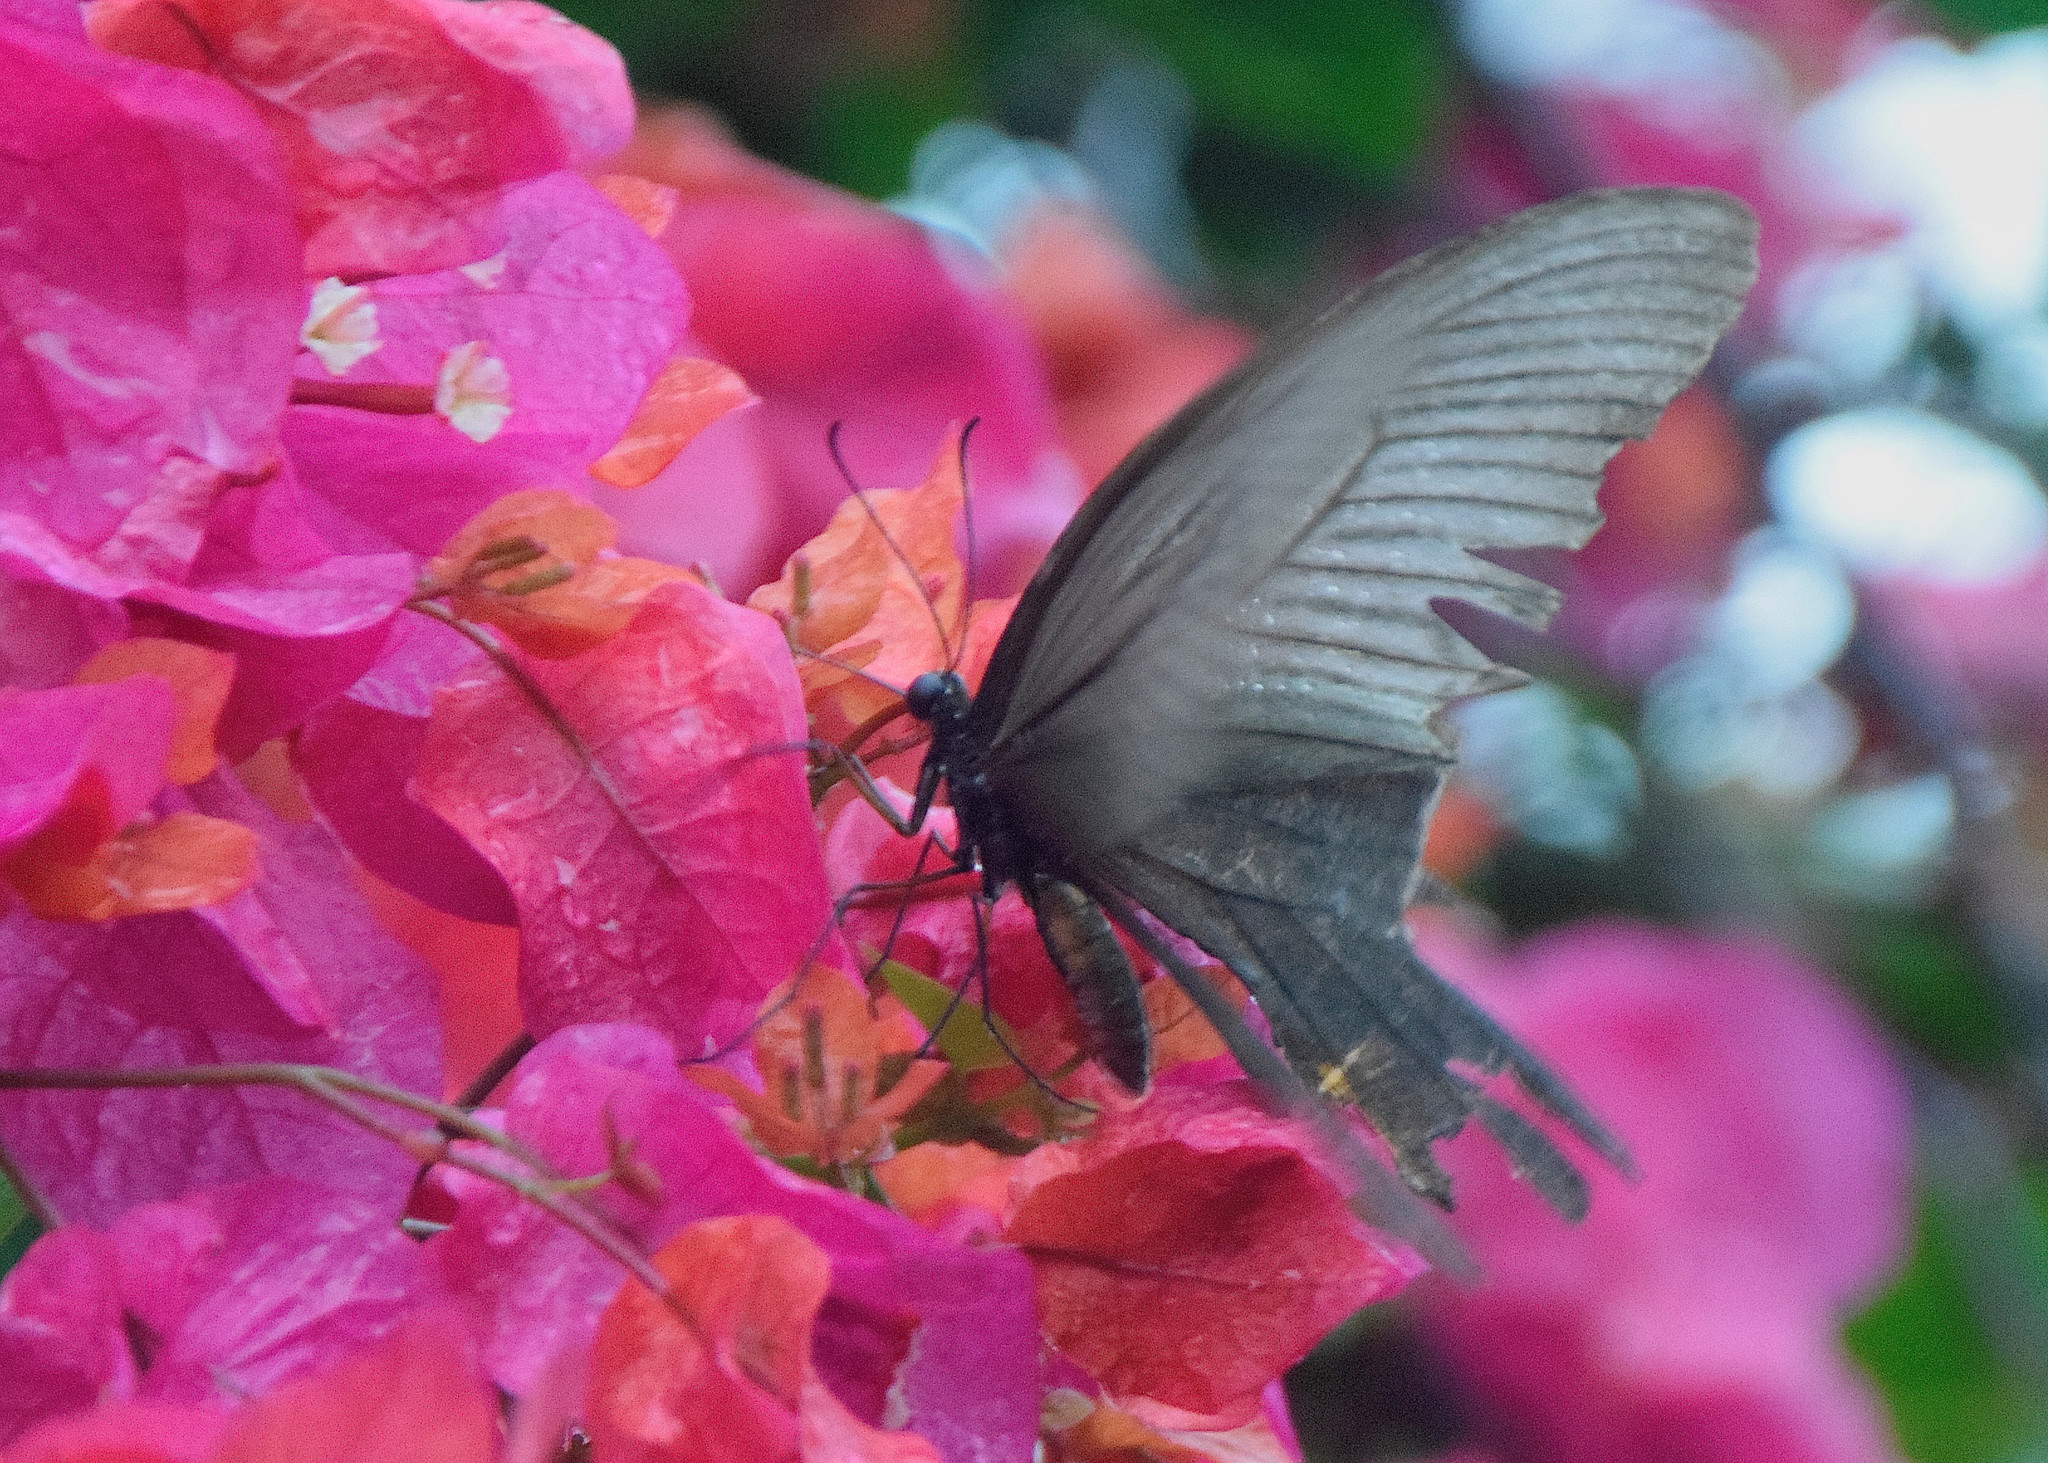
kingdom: Animalia
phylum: Arthropoda
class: Insecta
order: Lepidoptera
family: Papilionidae
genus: Papilio
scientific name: Papilio memnon
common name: Great mormon
